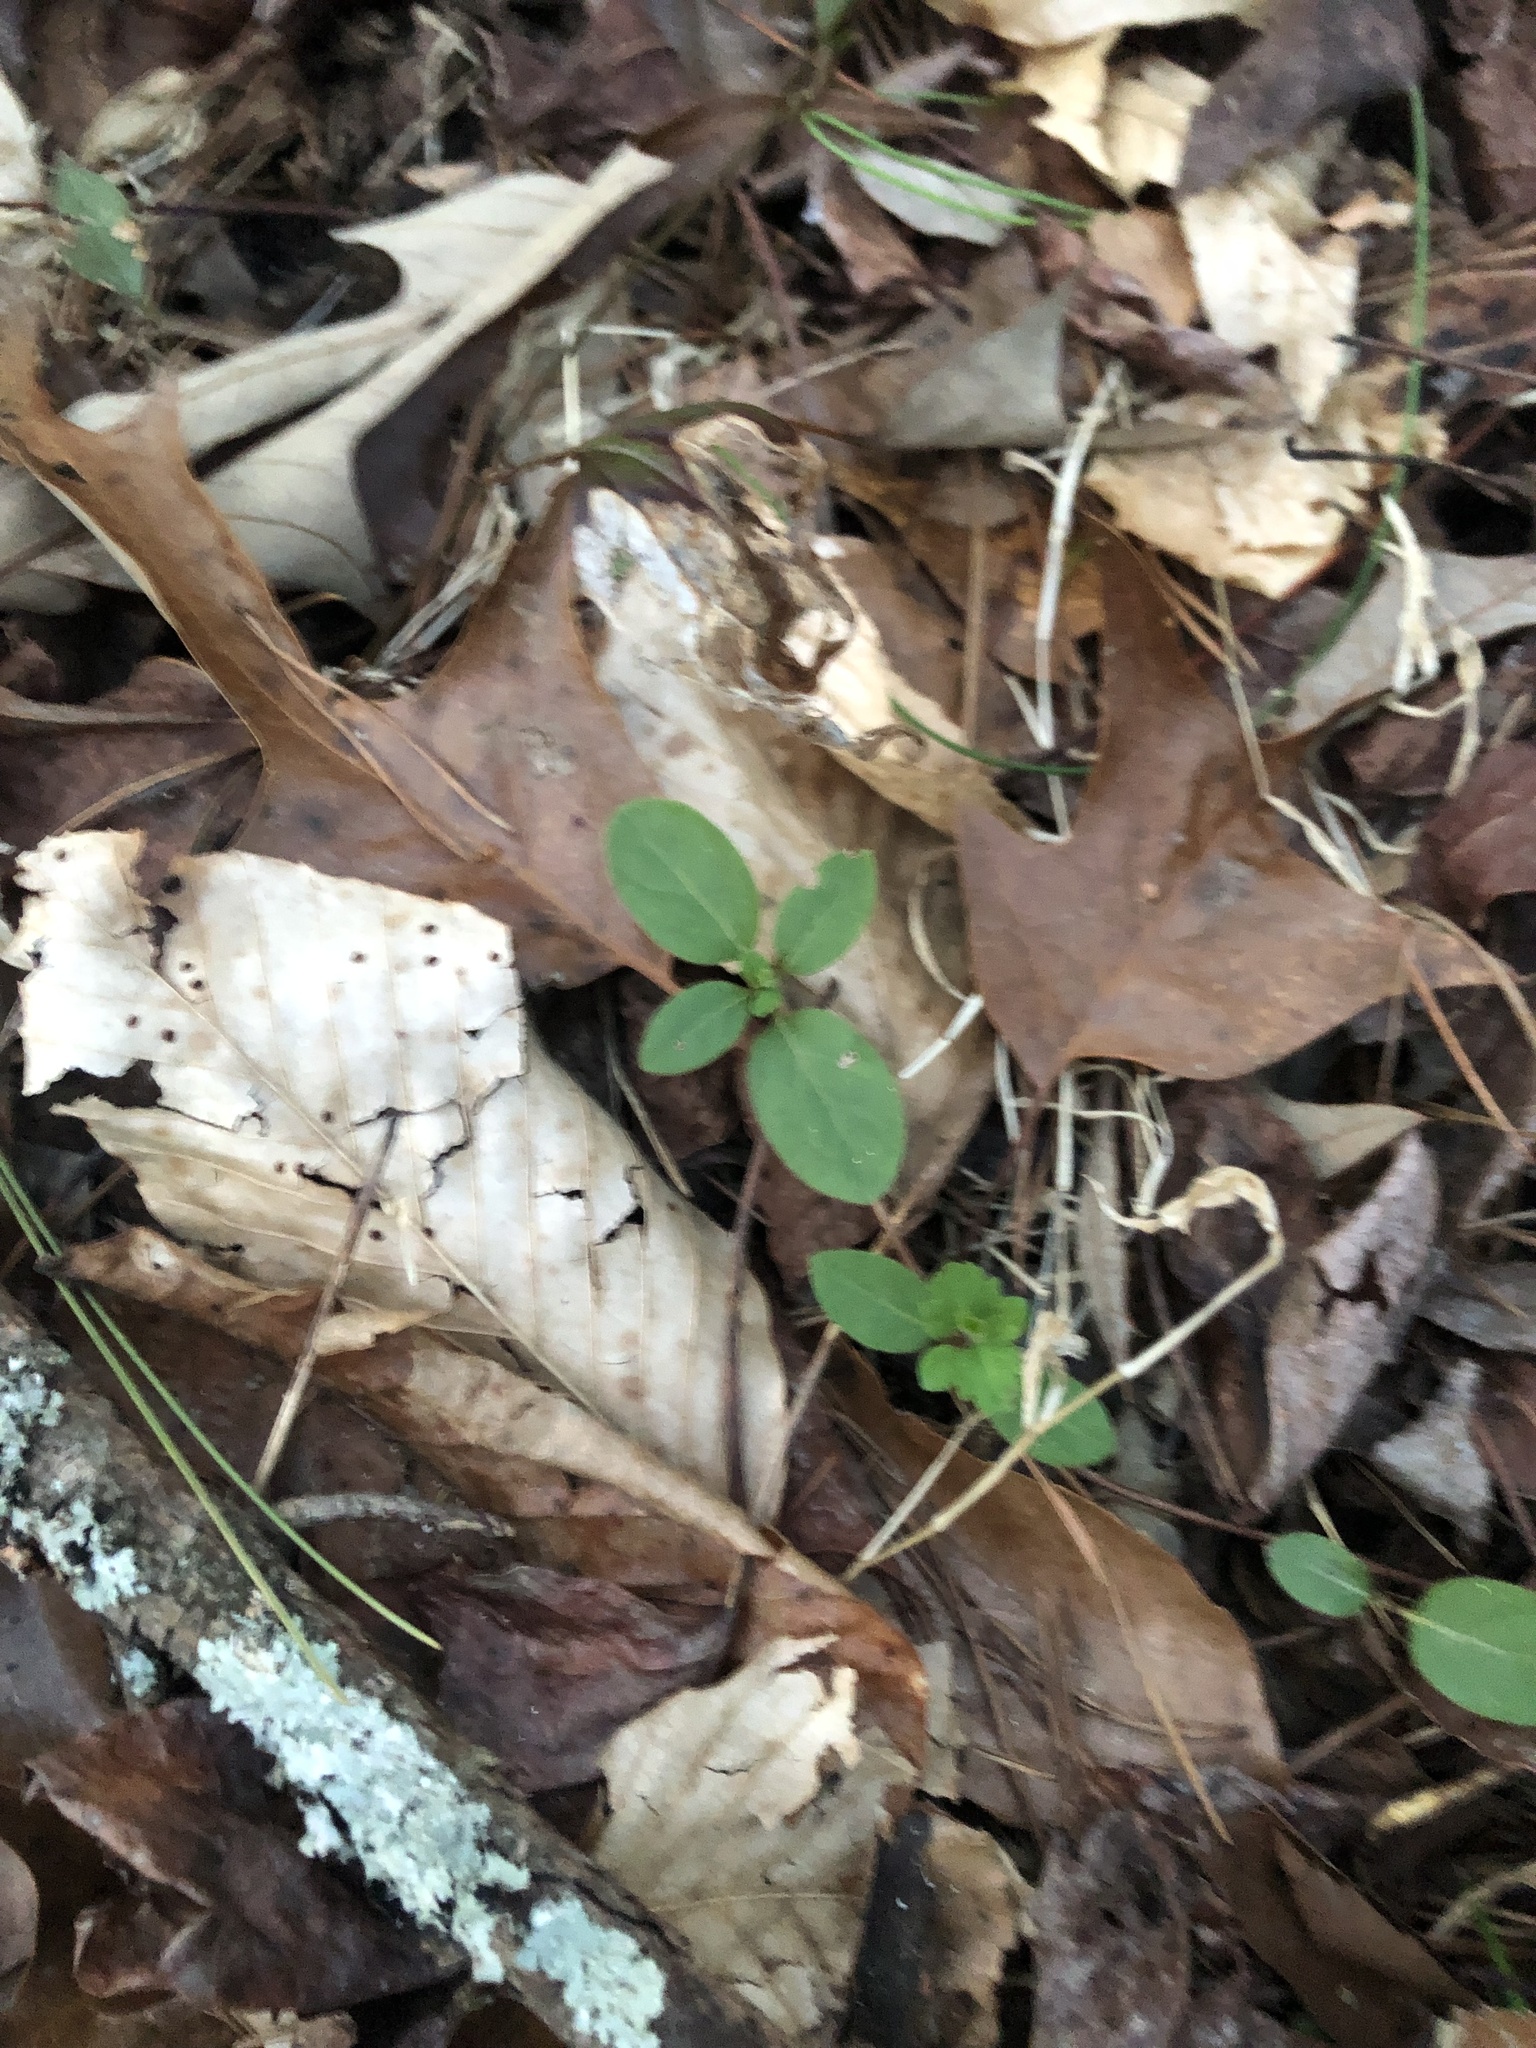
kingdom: Plantae
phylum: Tracheophyta
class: Magnoliopsida
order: Dipsacales
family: Caprifoliaceae
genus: Lonicera
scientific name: Lonicera japonica
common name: Japanese honeysuckle
